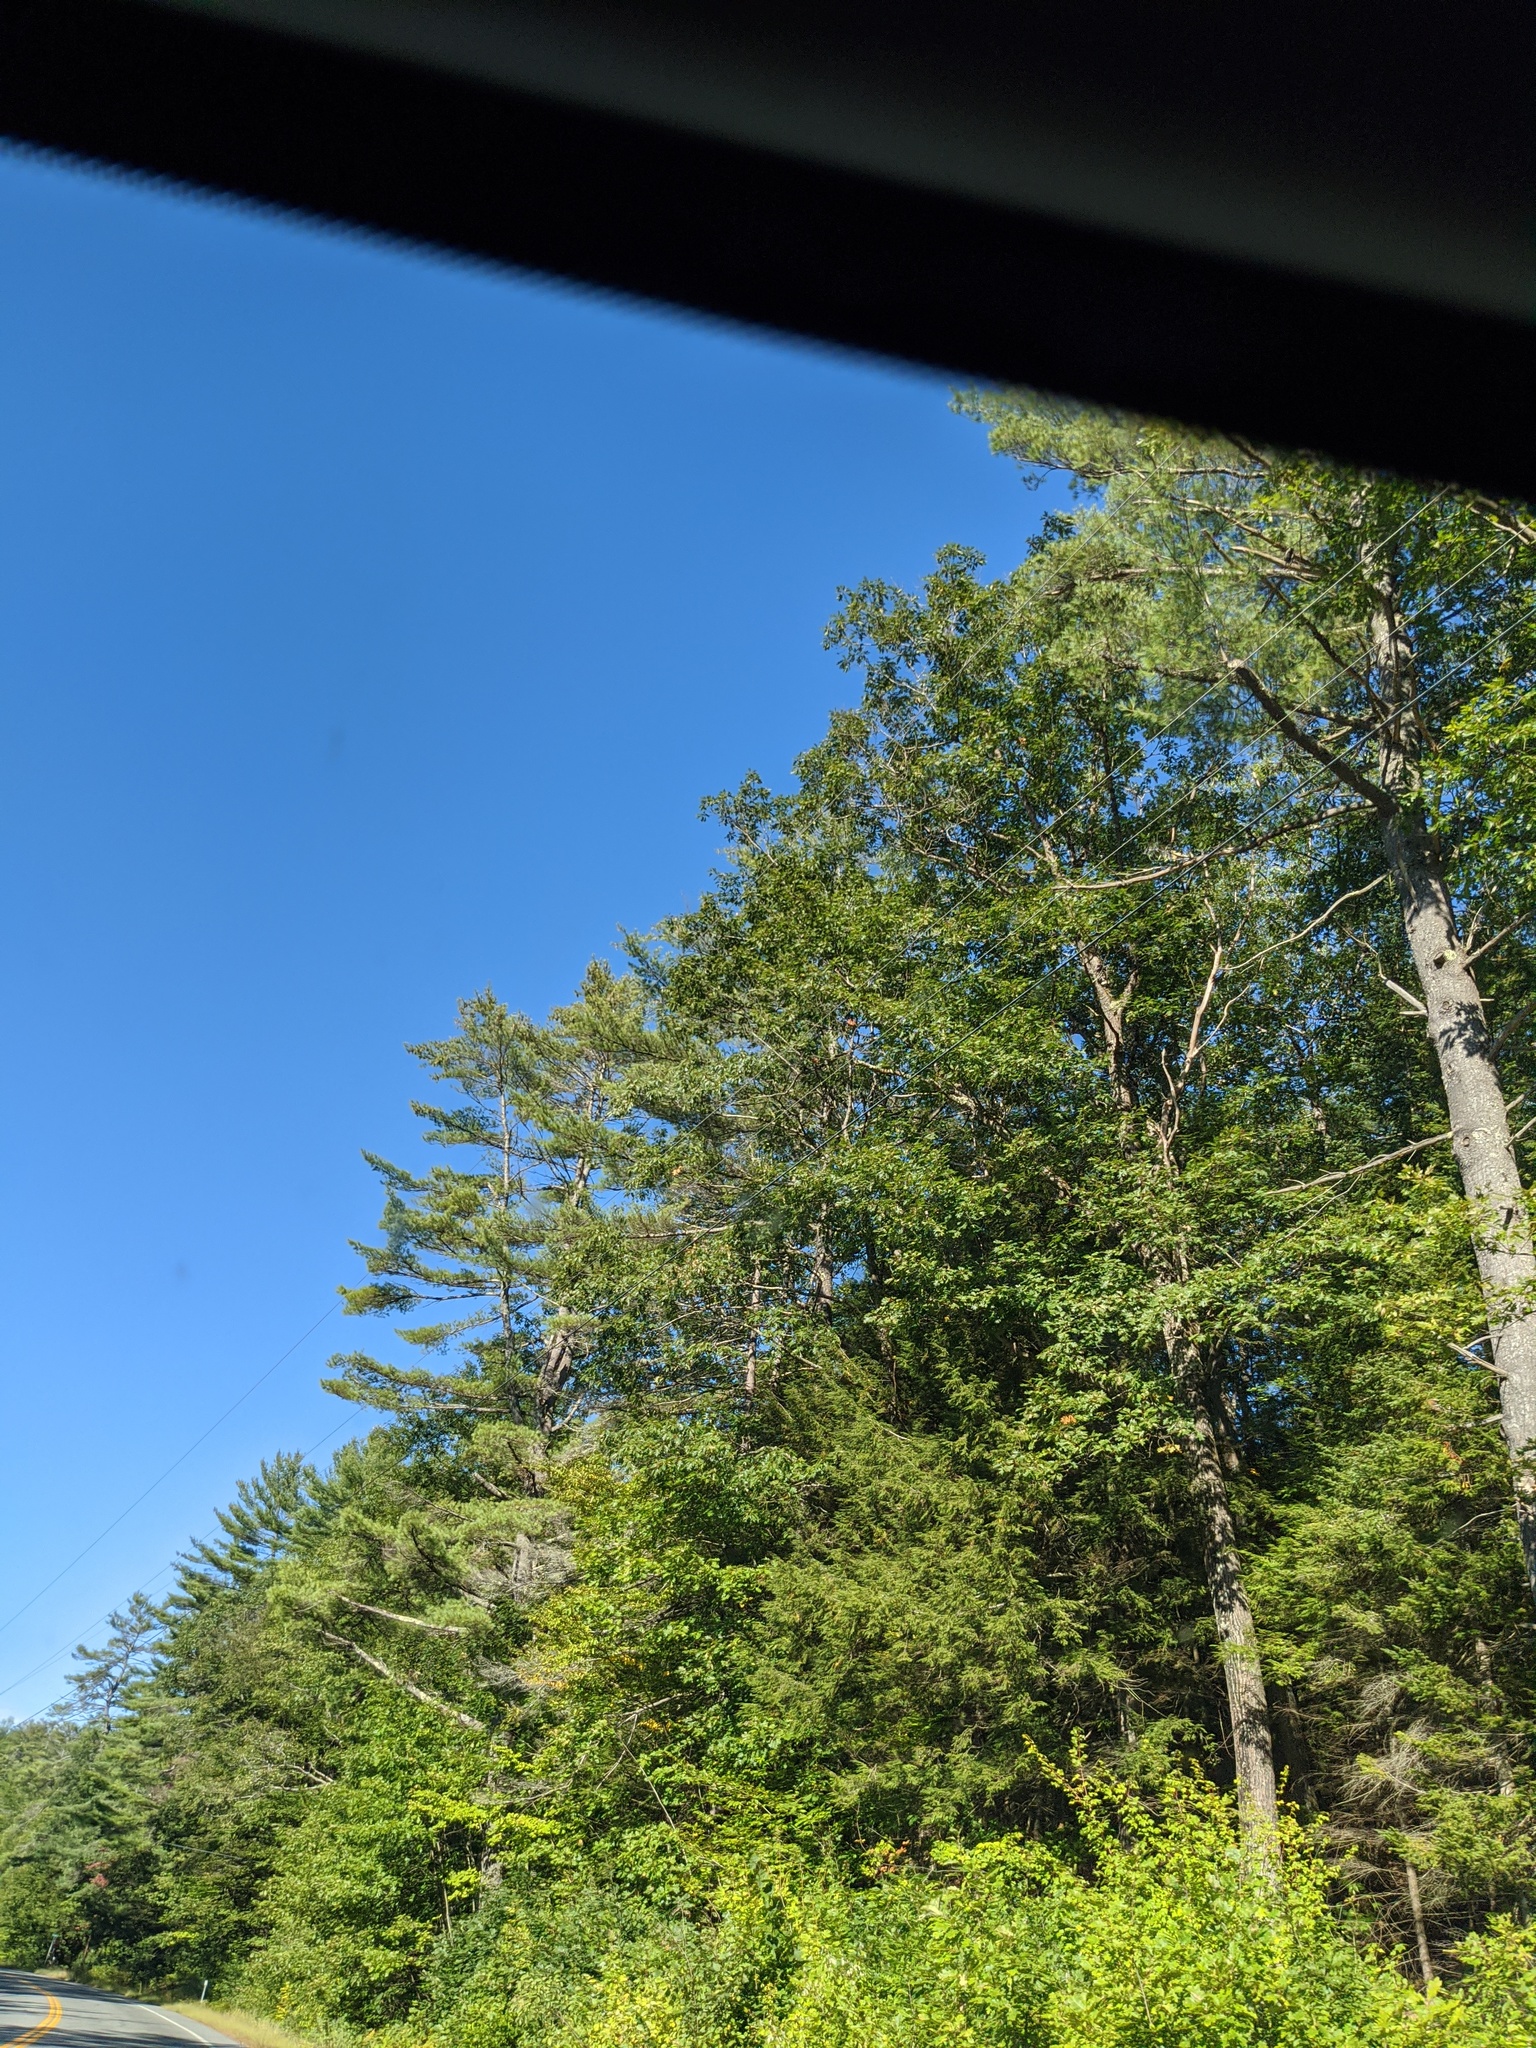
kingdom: Plantae
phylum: Tracheophyta
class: Pinopsida
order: Pinales
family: Pinaceae
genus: Pinus
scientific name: Pinus strobus
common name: Weymouth pine
